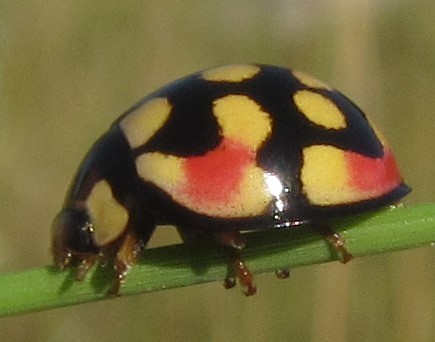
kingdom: Animalia
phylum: Arthropoda
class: Insecta
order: Coleoptera
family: Coccinellidae
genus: Cheilomenes
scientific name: Cheilomenes sulphurea
